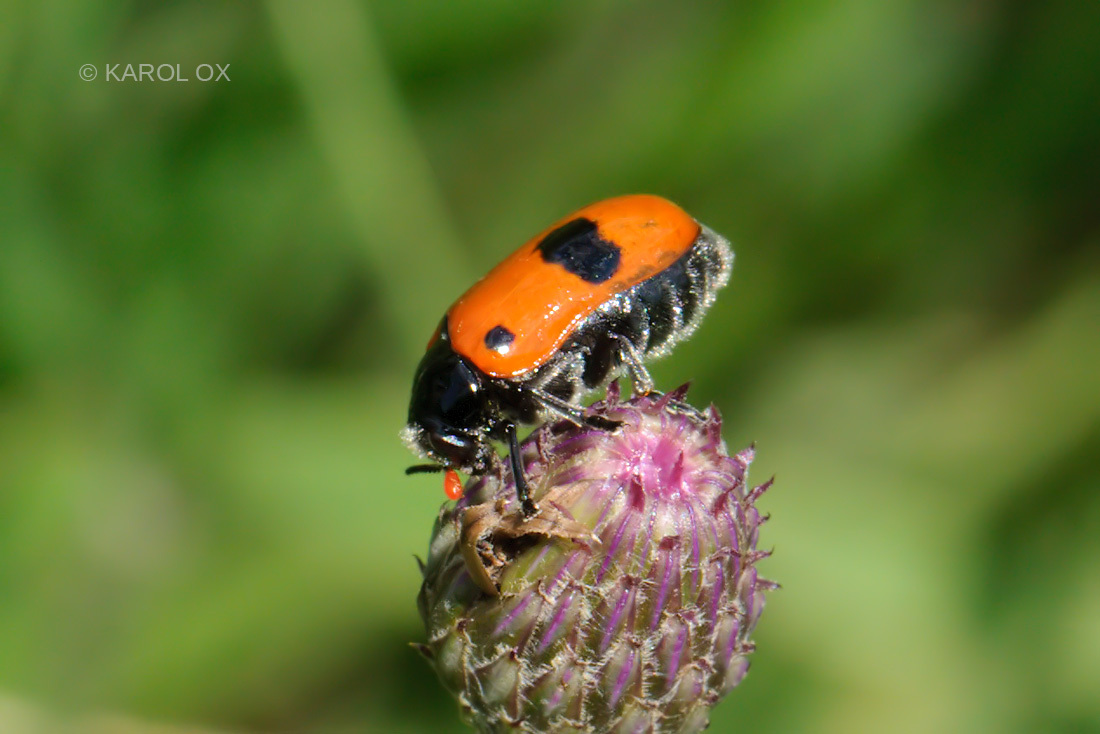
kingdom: Animalia
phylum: Arthropoda
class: Insecta
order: Coleoptera
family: Chrysomelidae
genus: Clytra
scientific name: Clytra laeviuscula
